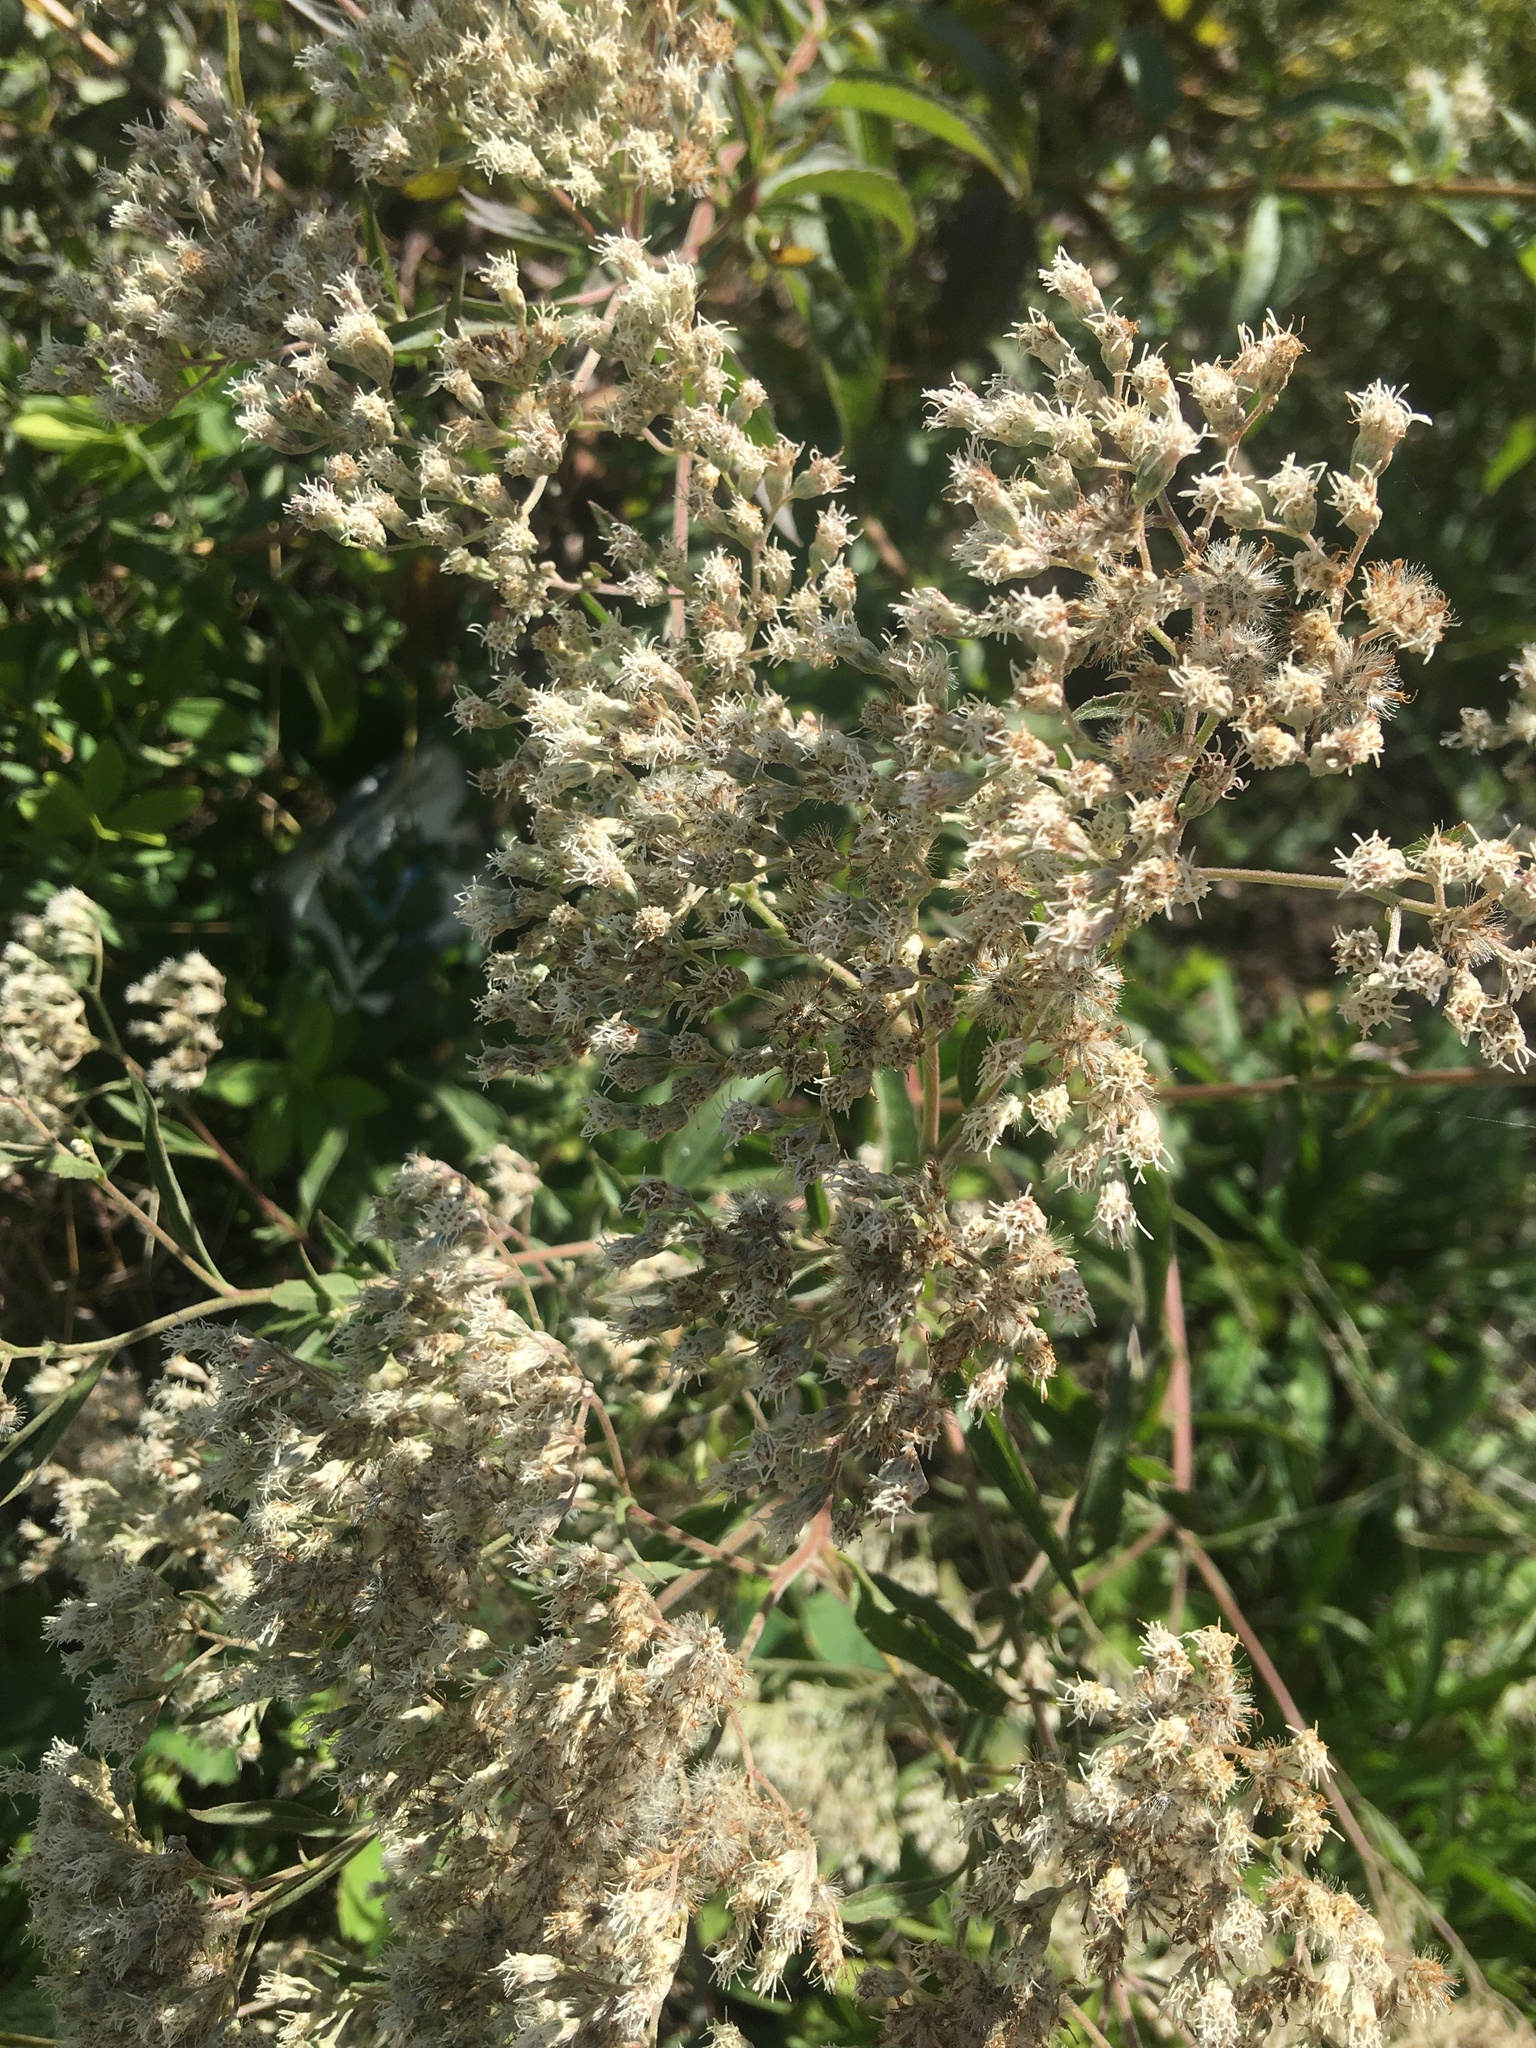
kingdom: Plantae
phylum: Tracheophyta
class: Magnoliopsida
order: Asterales
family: Asteraceae
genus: Eupatorium
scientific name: Eupatorium serotinum
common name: Late boneset
